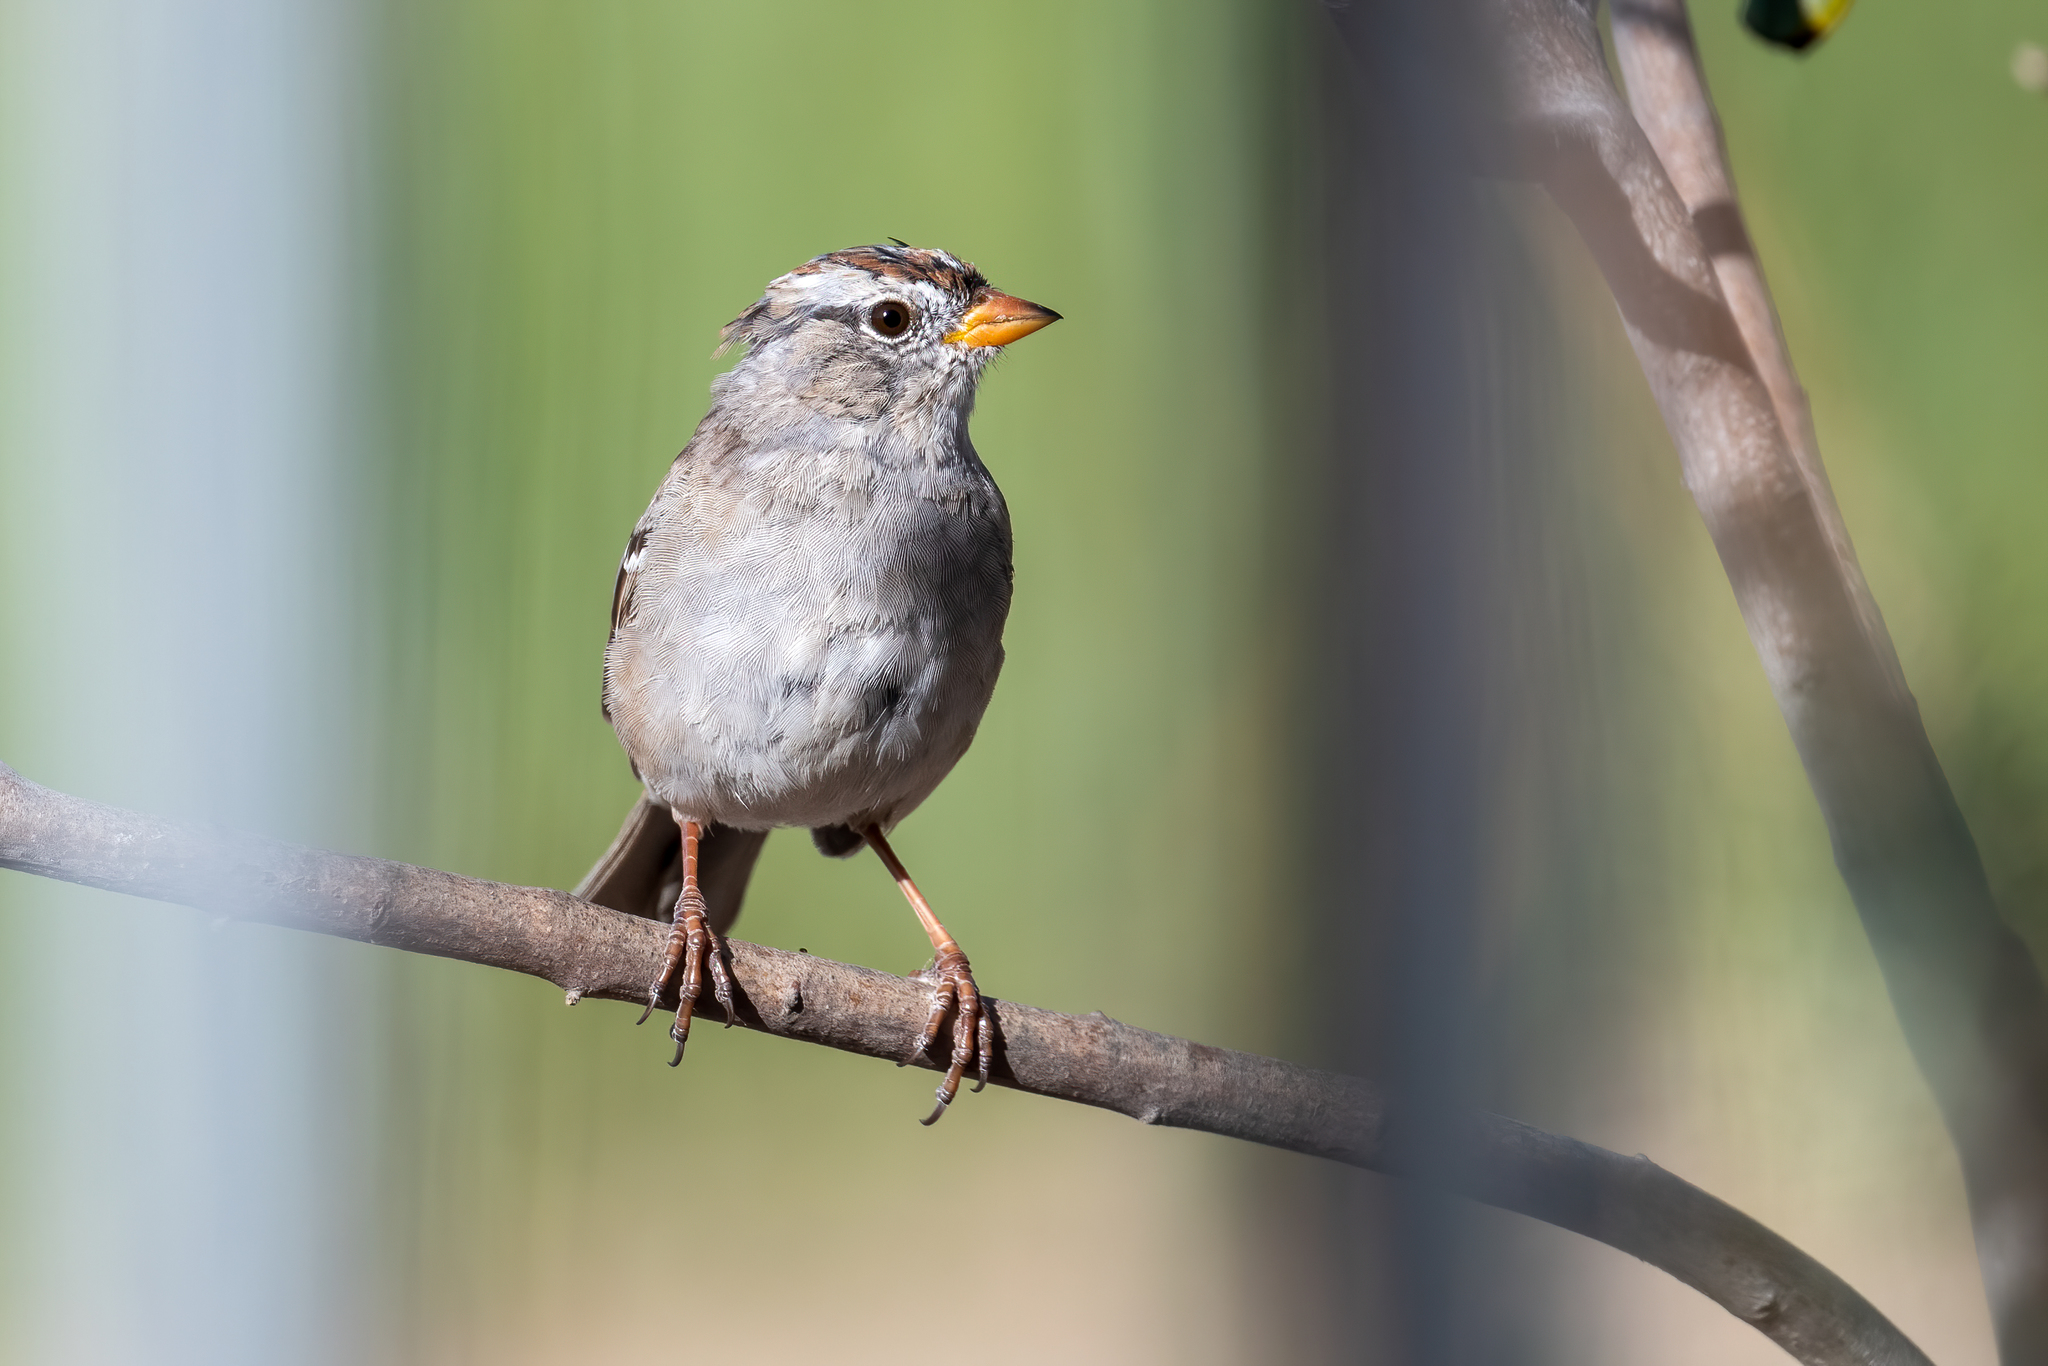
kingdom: Animalia
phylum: Chordata
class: Aves
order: Passeriformes
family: Passerellidae
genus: Zonotrichia
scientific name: Zonotrichia leucophrys
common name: White-crowned sparrow
